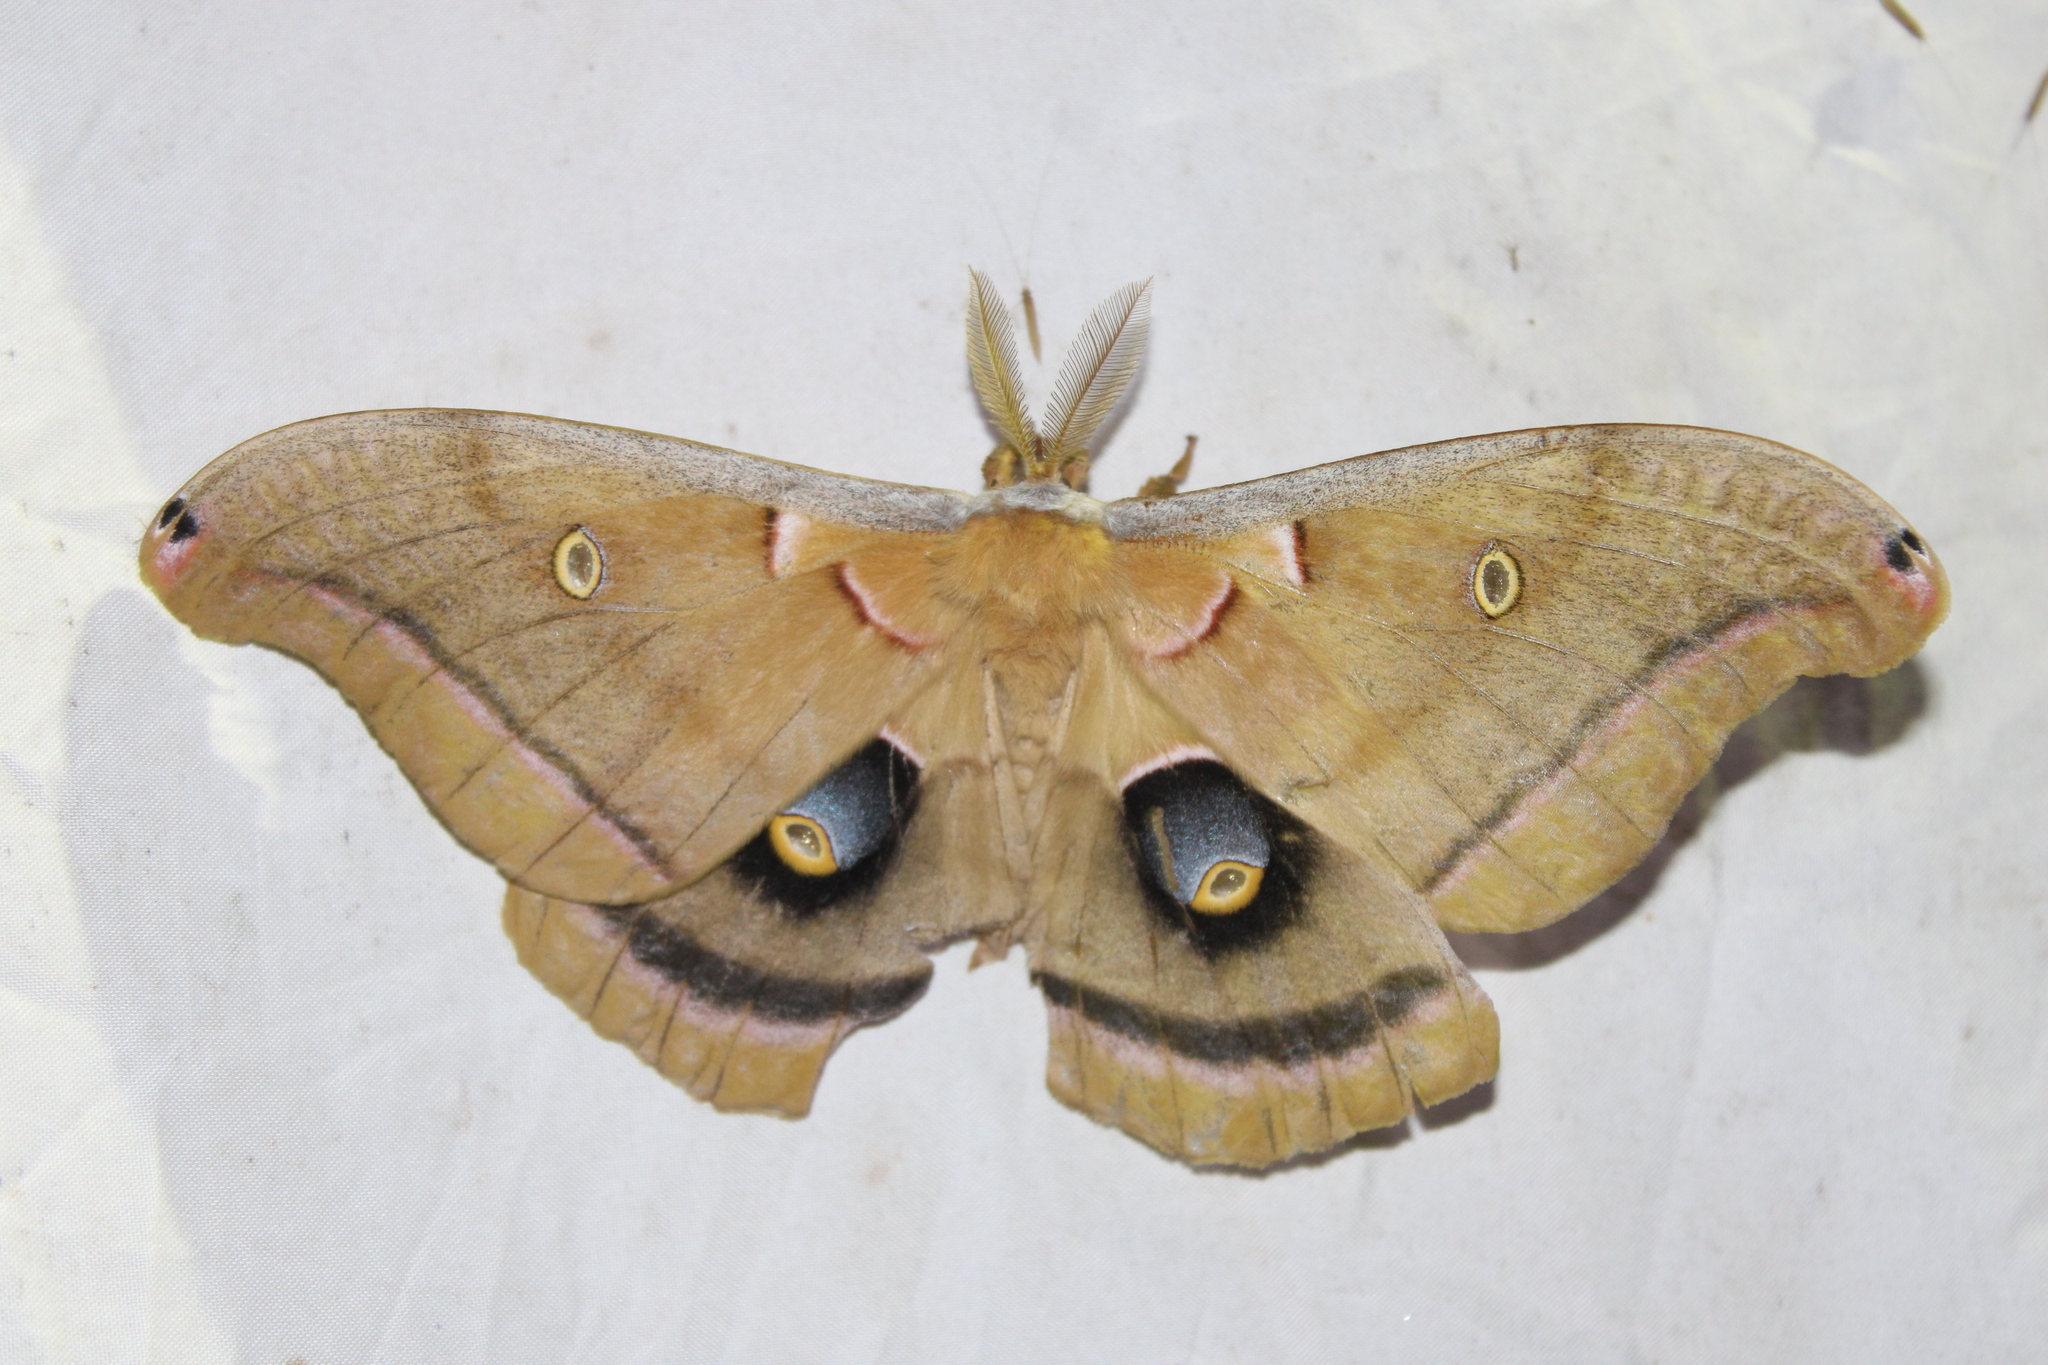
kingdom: Animalia
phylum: Arthropoda
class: Insecta
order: Lepidoptera
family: Saturniidae
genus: Antheraea
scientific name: Antheraea polyphemus
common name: Polyphemus moth
